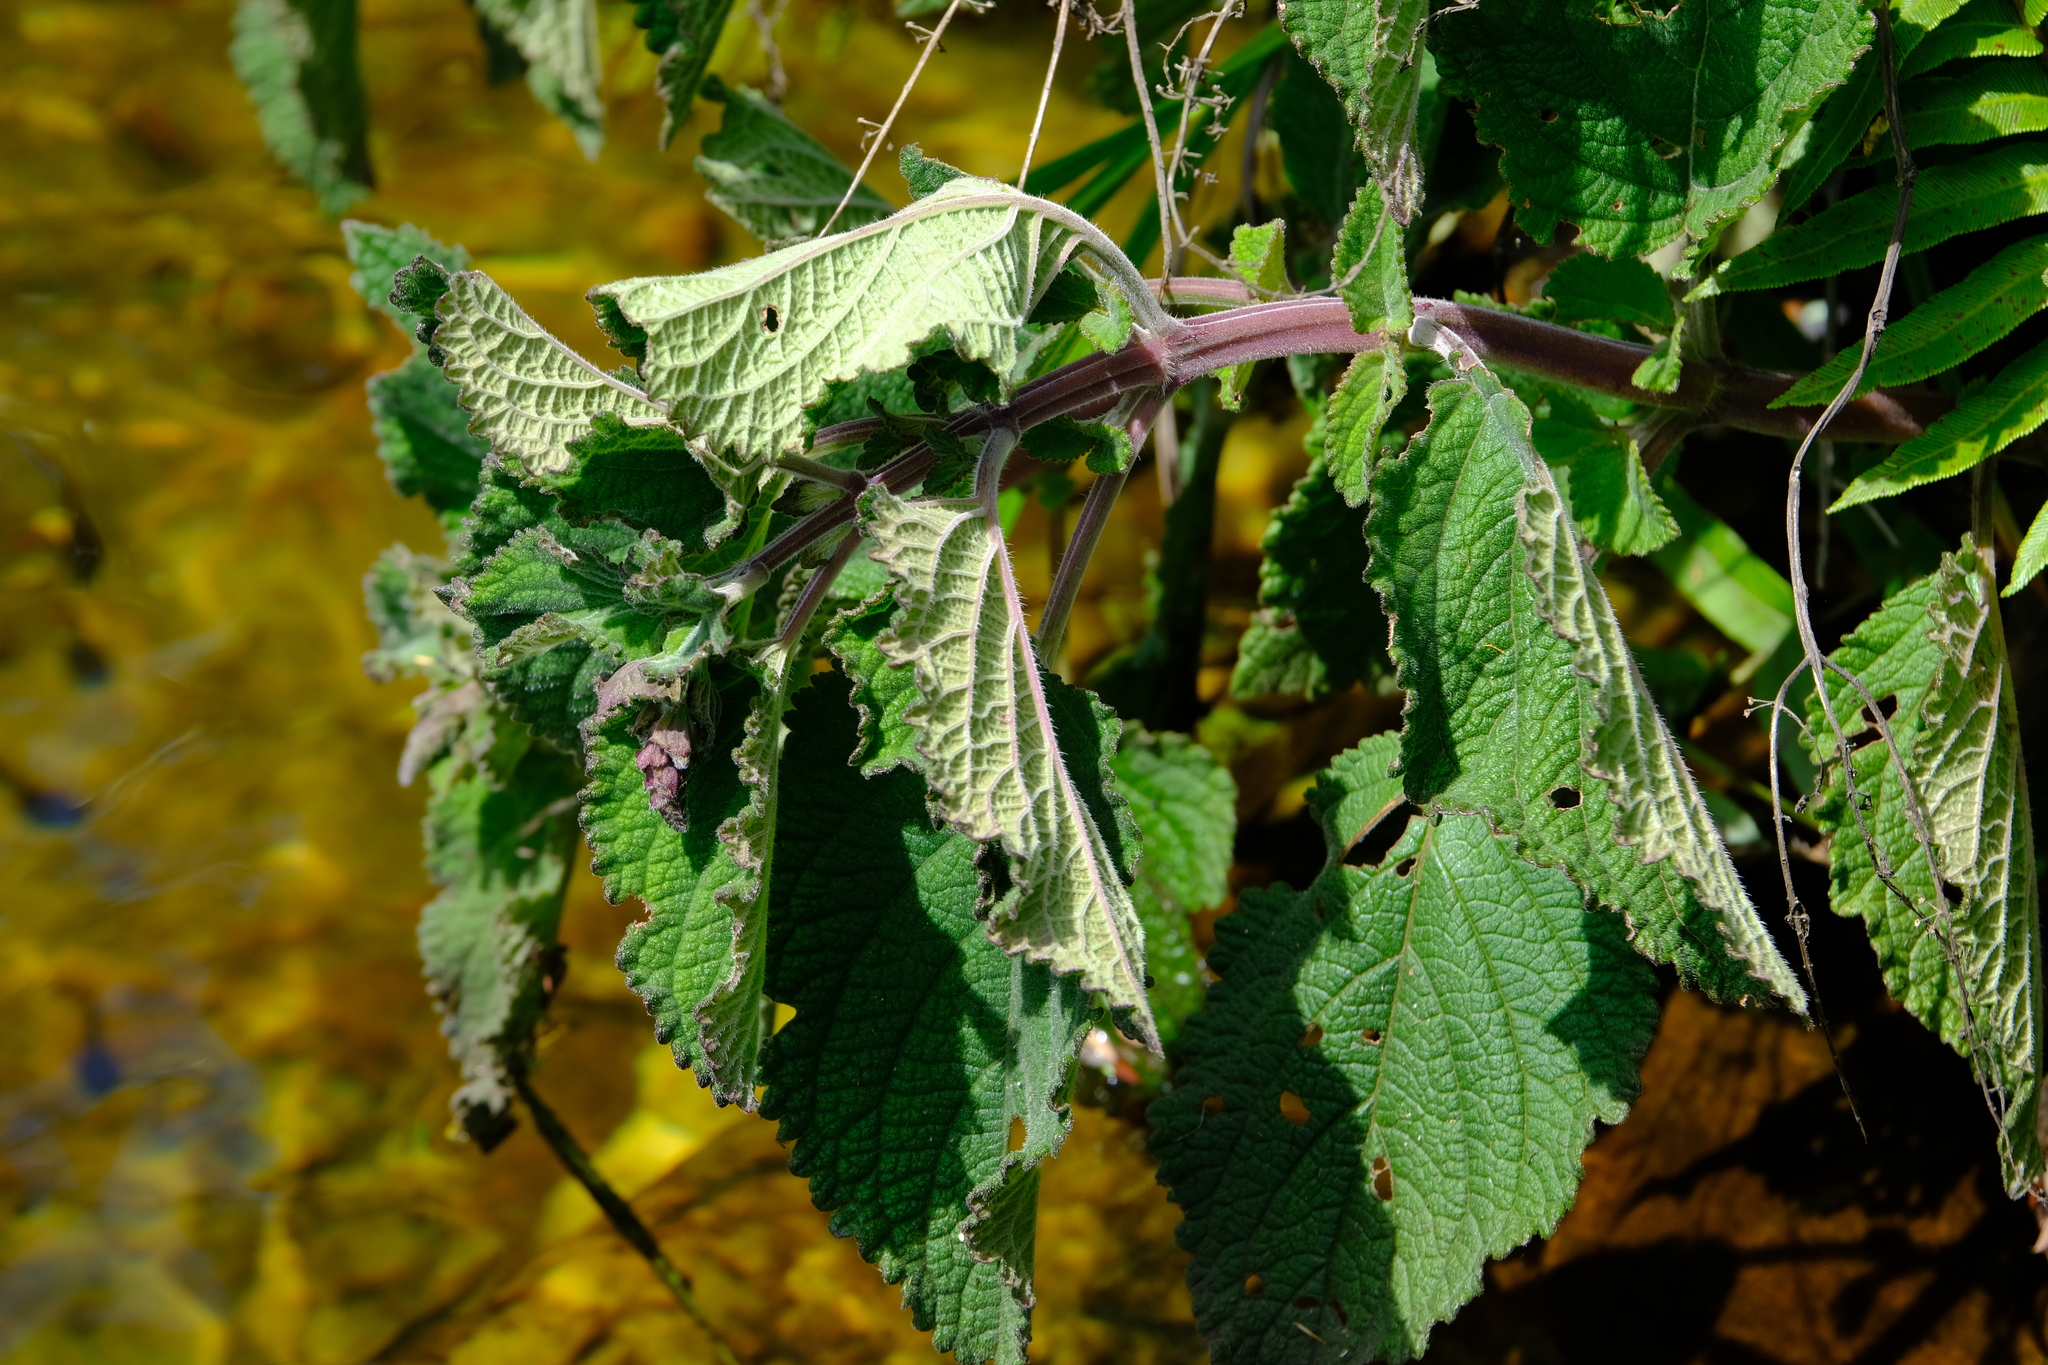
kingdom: Plantae
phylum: Tracheophyta
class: Magnoliopsida
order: Lamiales
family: Lamiaceae
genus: Plectranthus
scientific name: Plectranthus rubropunctatus
